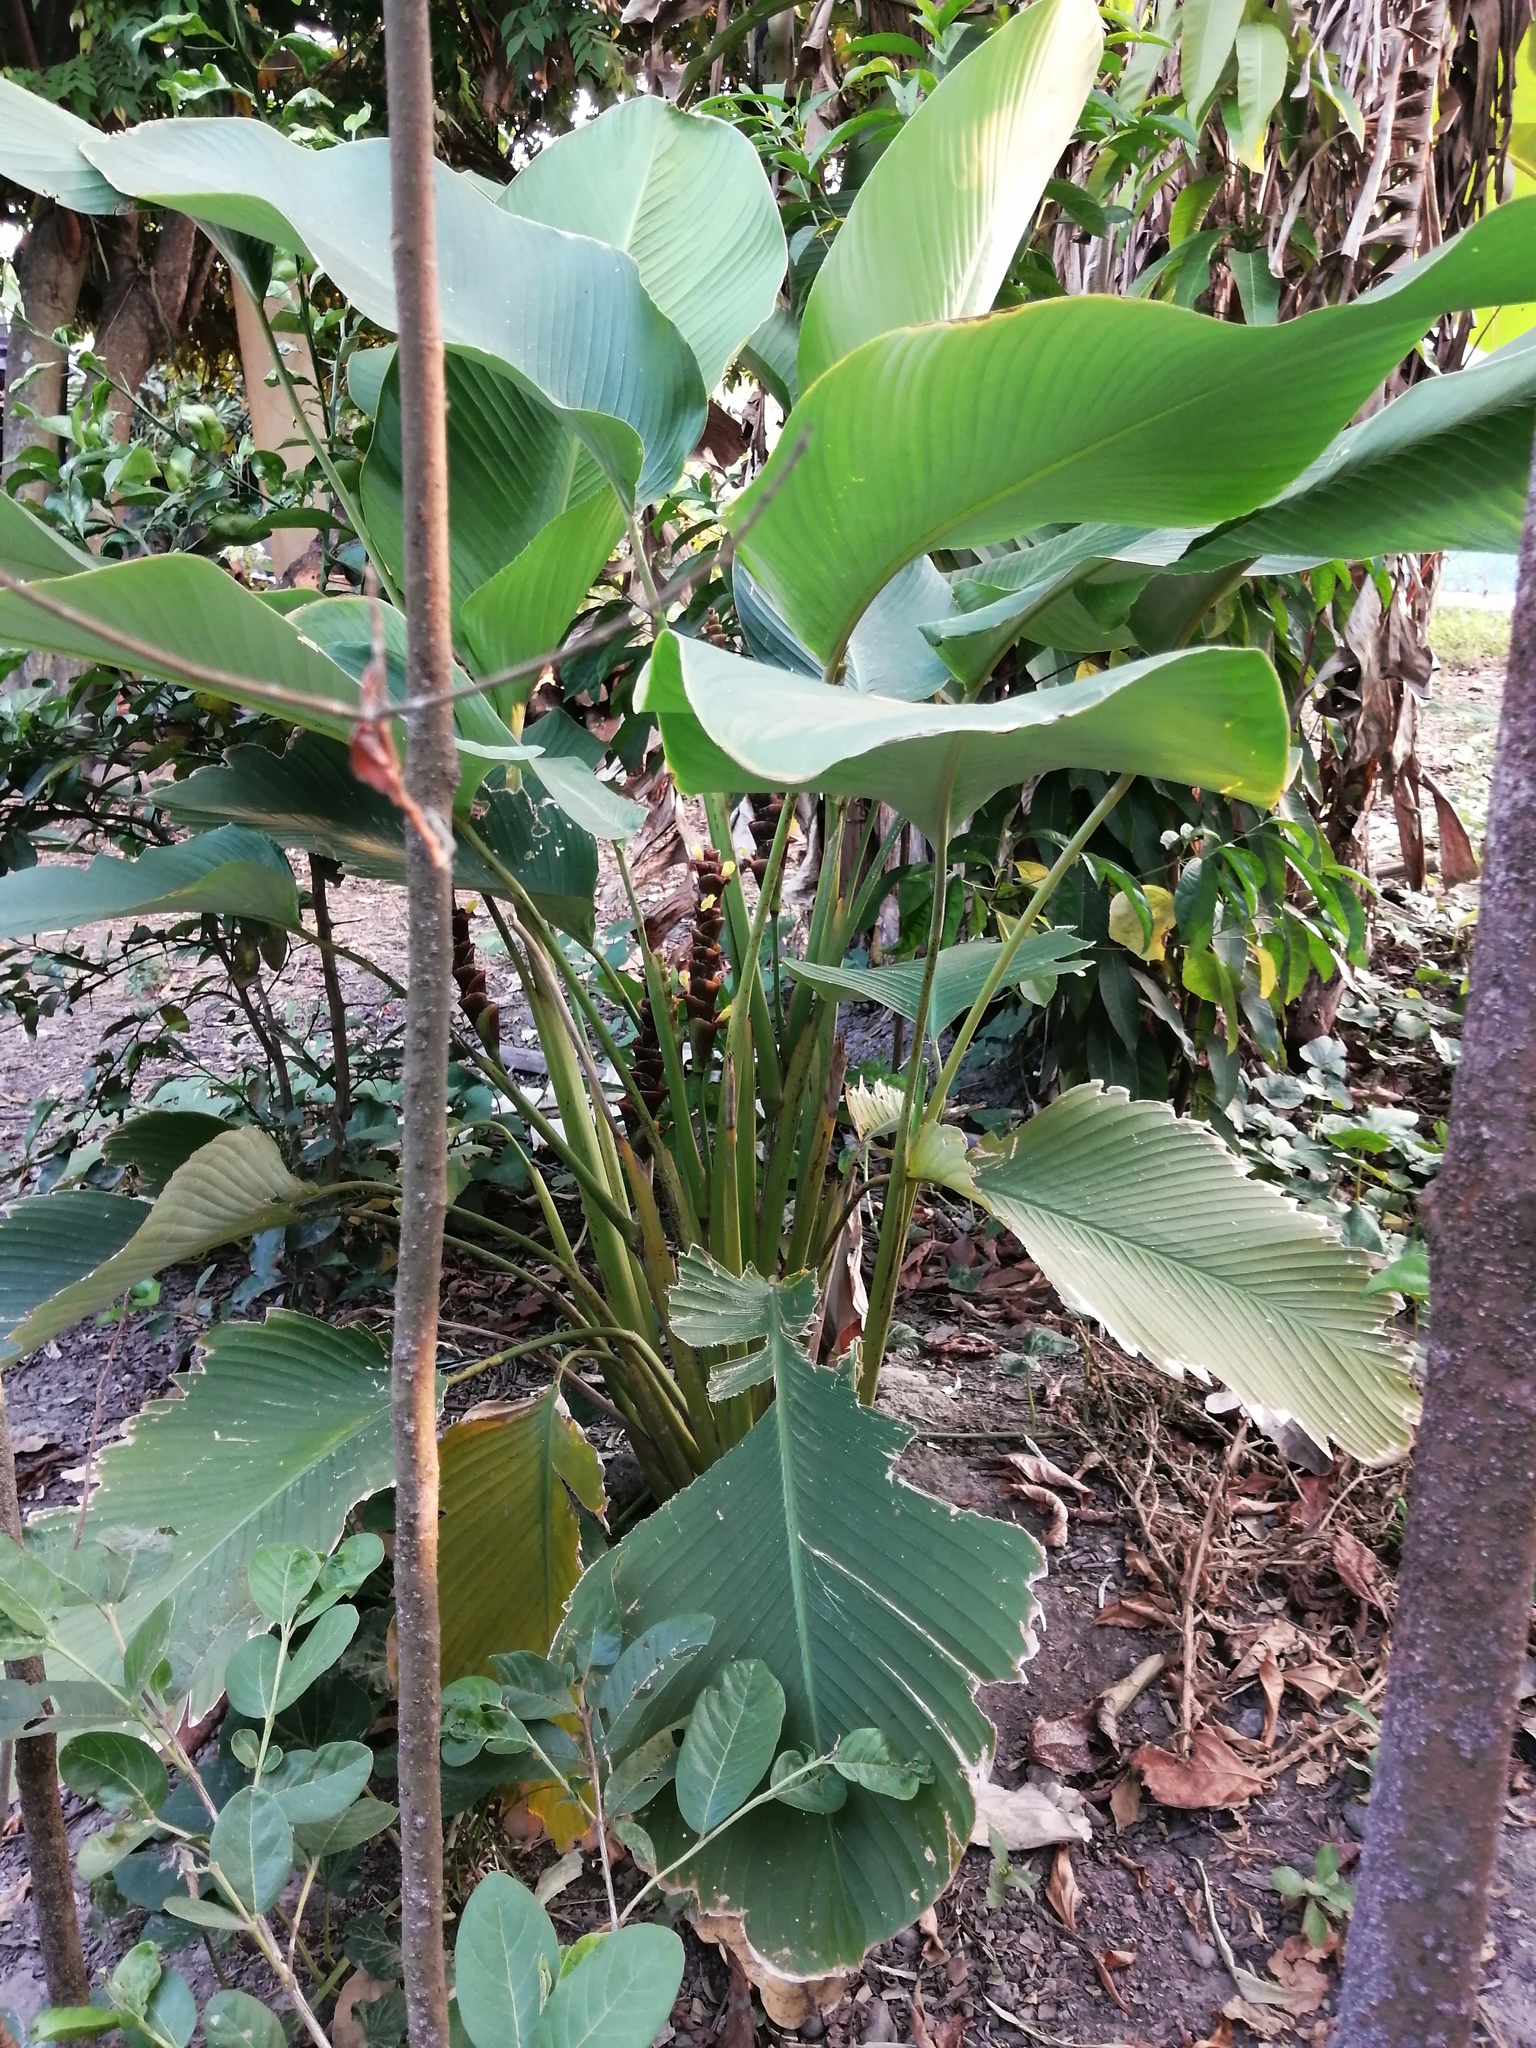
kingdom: Plantae
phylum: Tracheophyta
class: Liliopsida
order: Zingiberales
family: Marantaceae
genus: Calathea
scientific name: Calathea lutea
